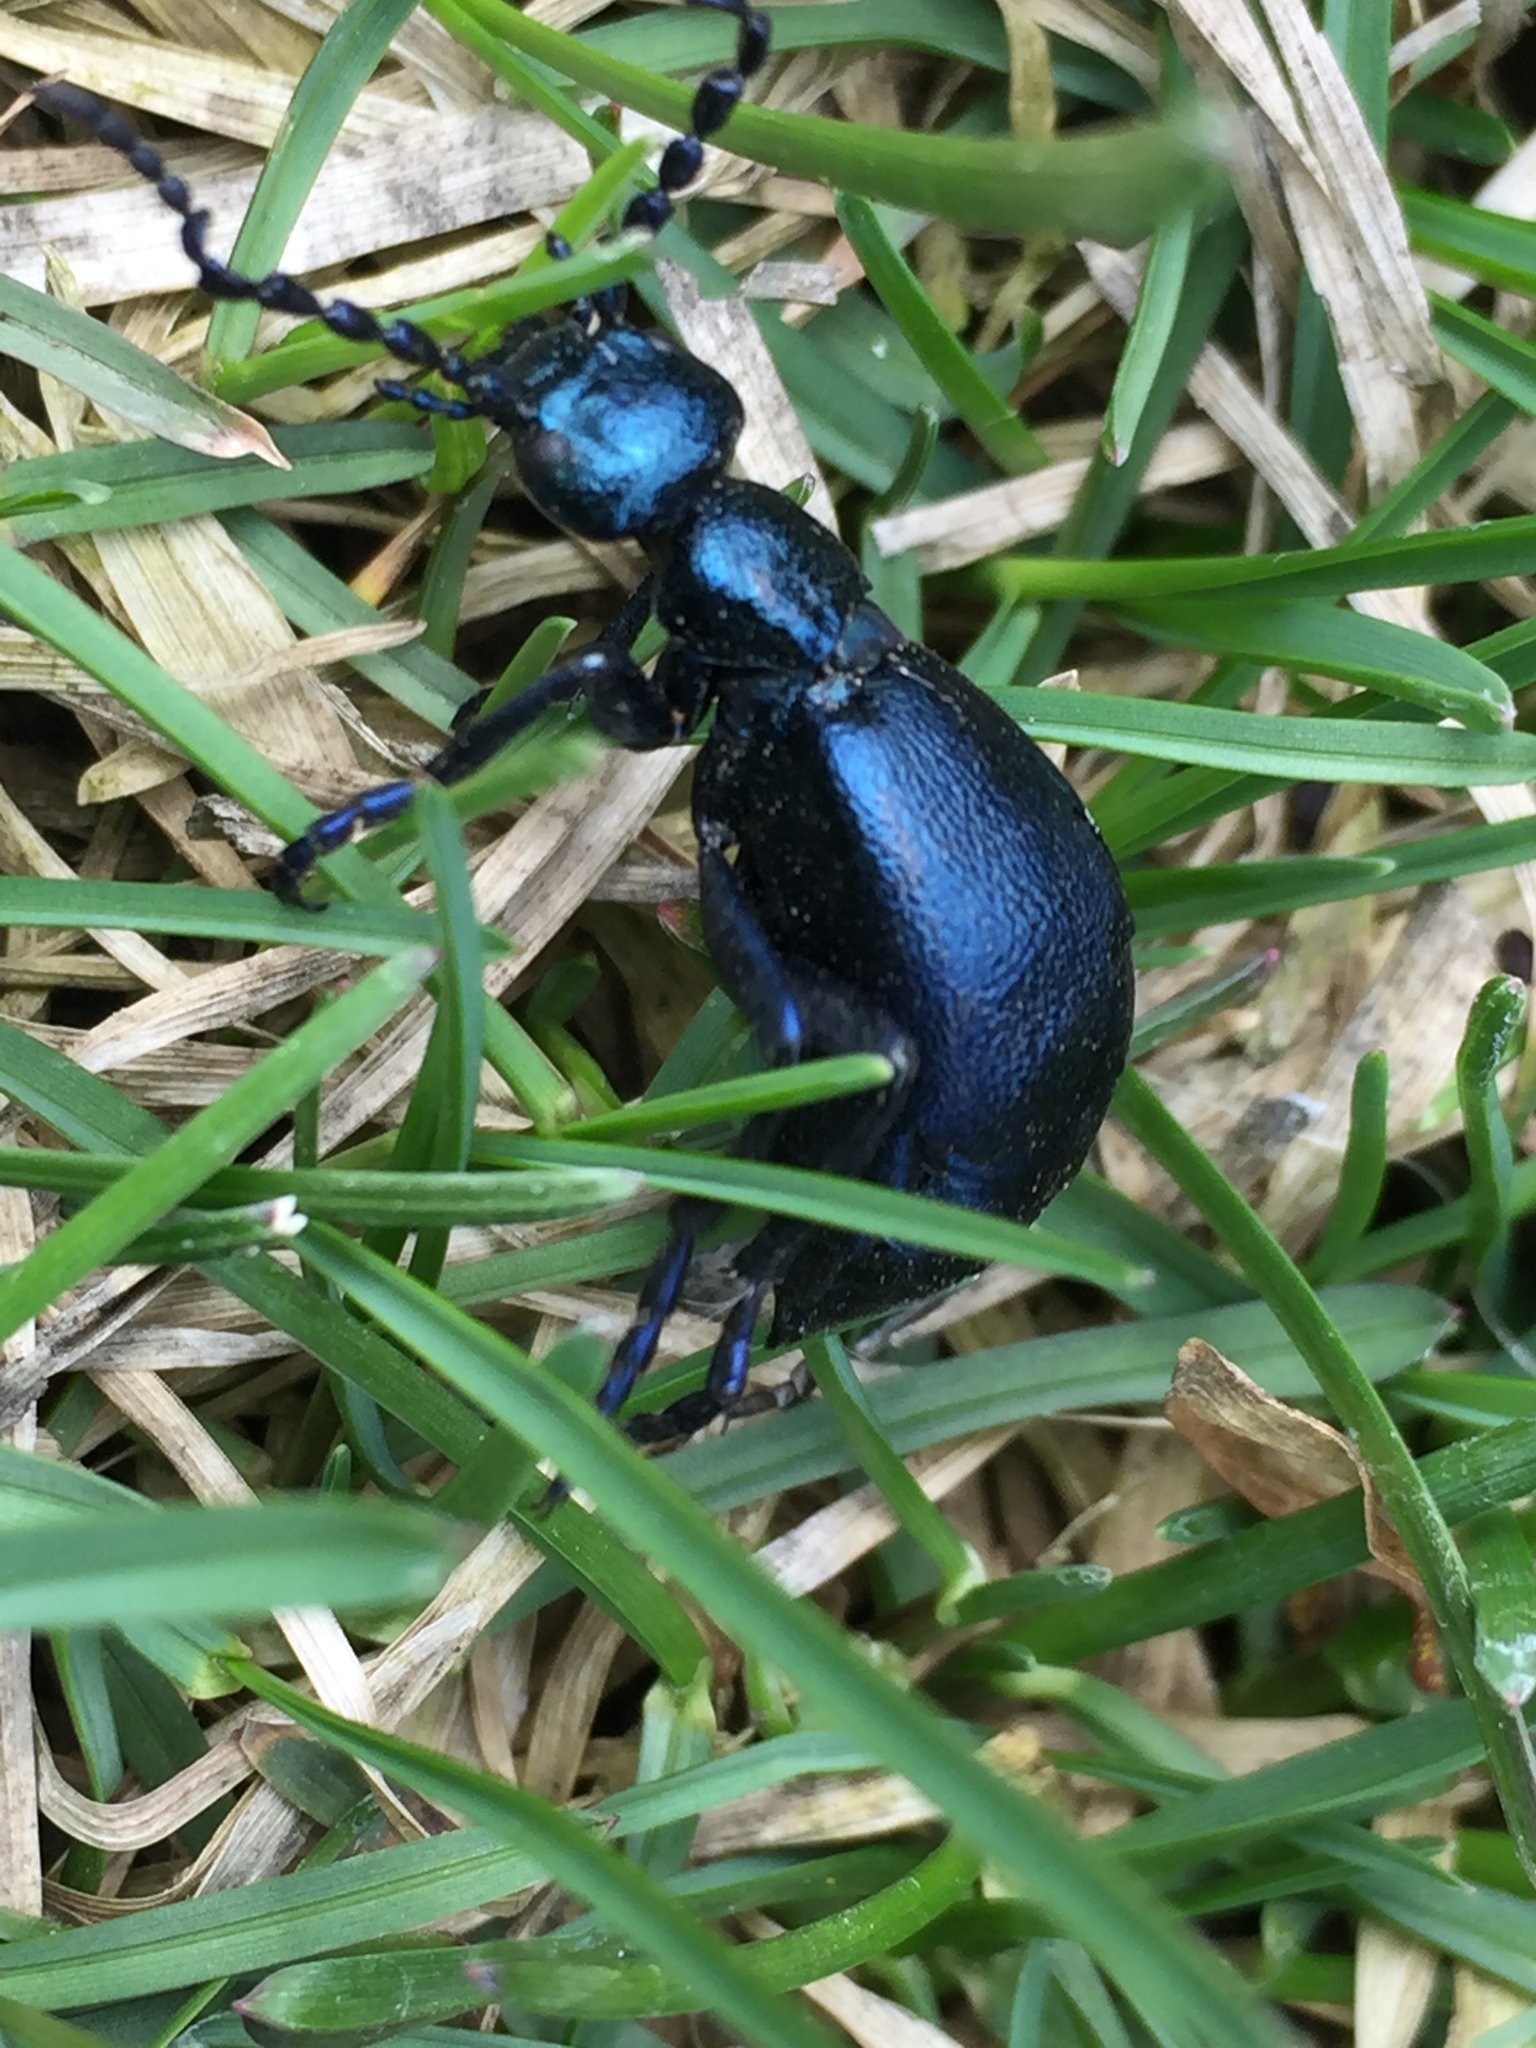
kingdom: Animalia
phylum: Arthropoda
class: Insecta
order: Coleoptera
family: Meloidae
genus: Meloe
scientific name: Meloe violaceus
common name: Violet oil-beetle
